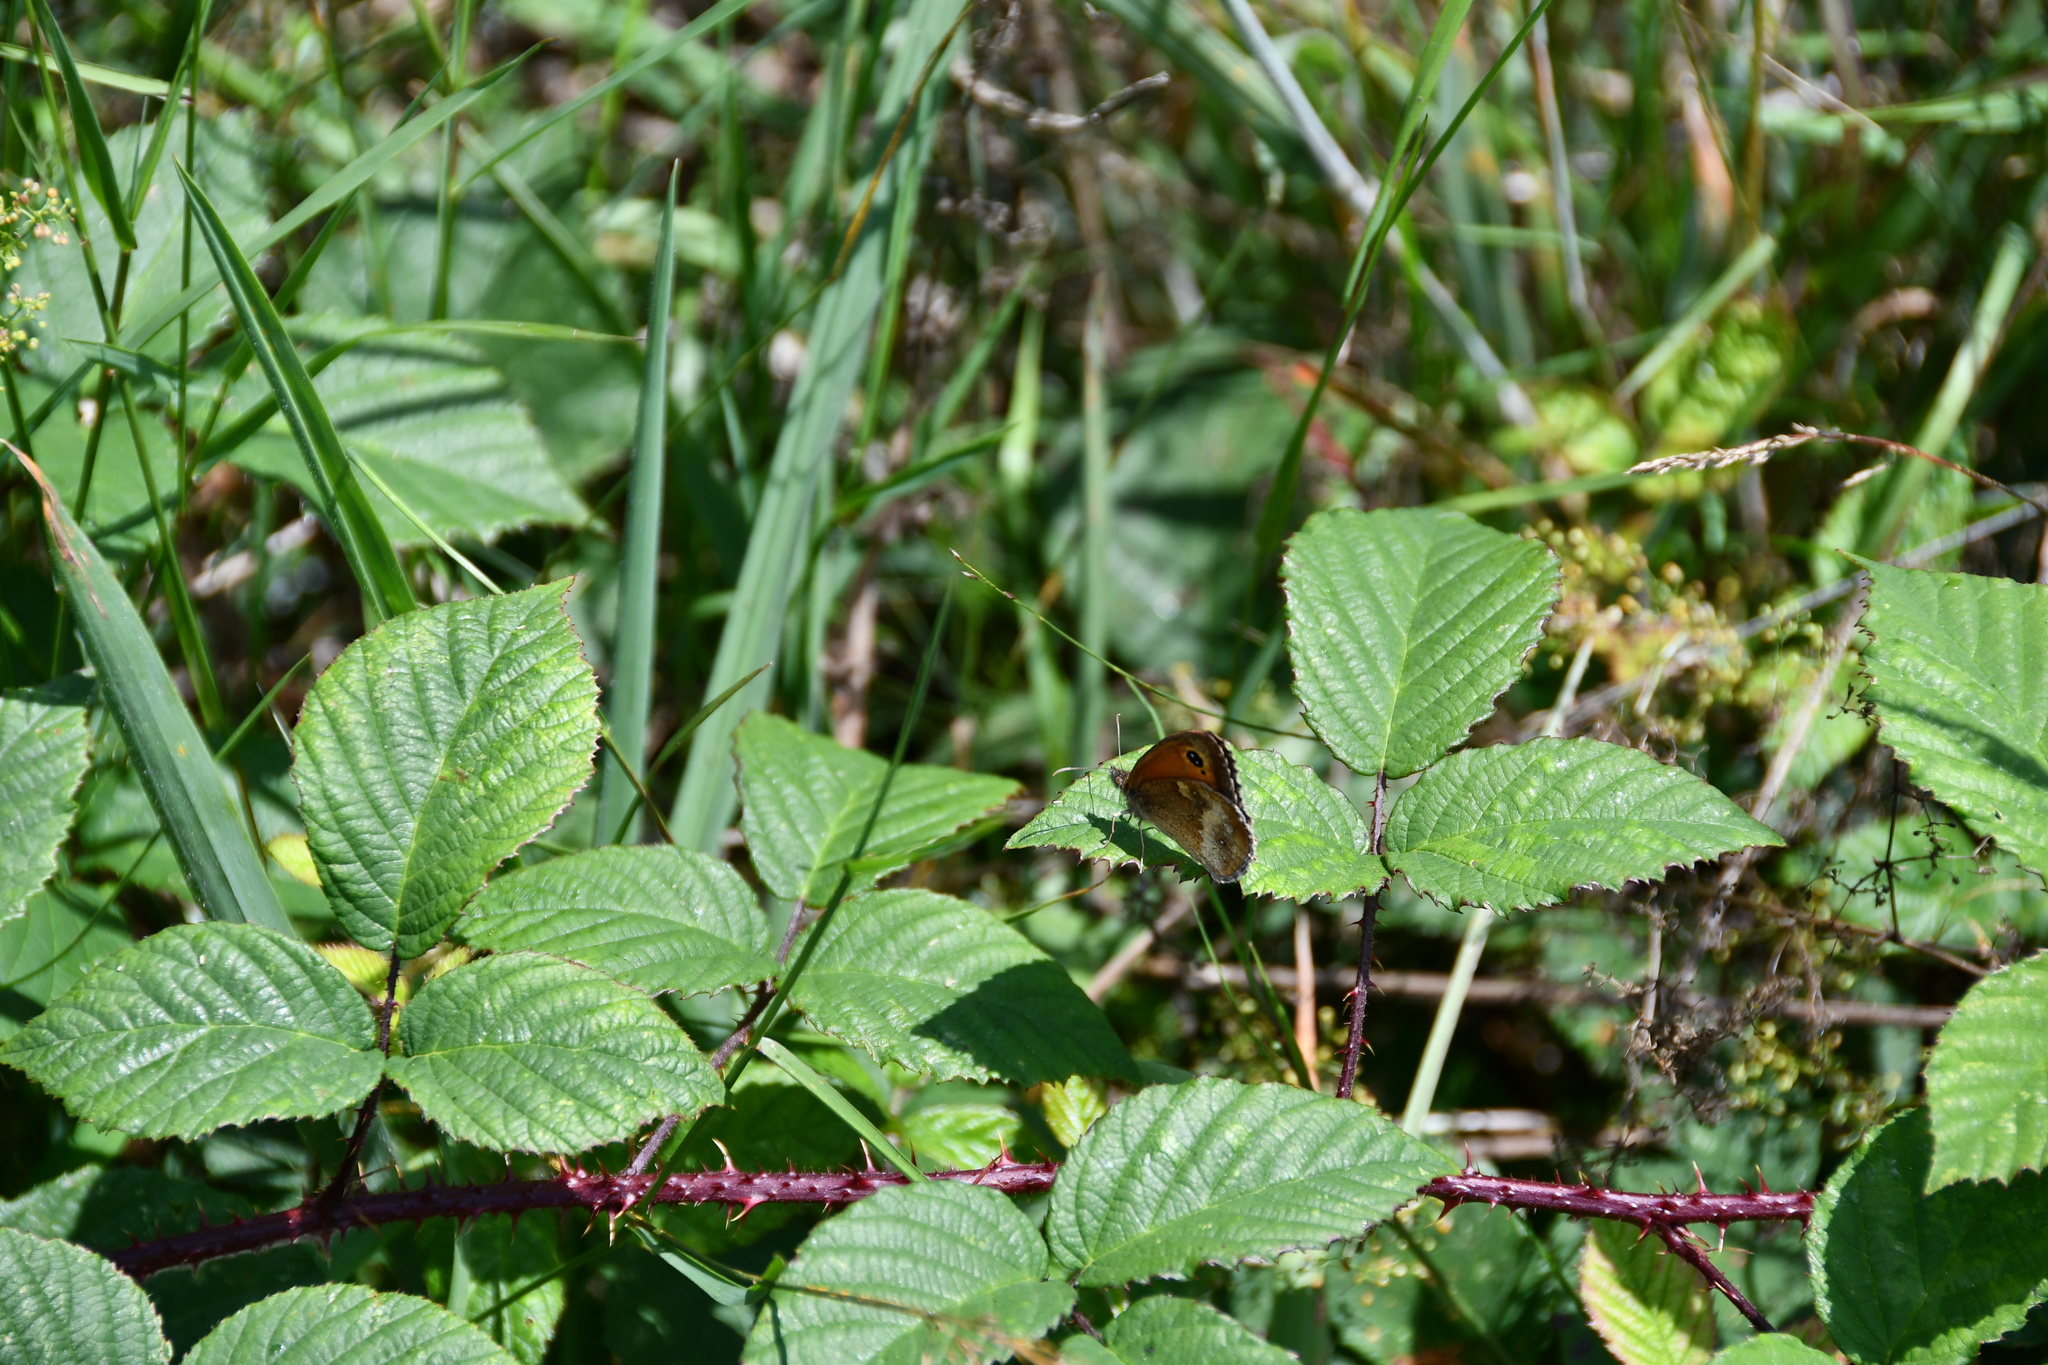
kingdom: Animalia
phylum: Arthropoda
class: Insecta
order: Lepidoptera
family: Nymphalidae
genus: Pyronia
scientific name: Pyronia tithonus
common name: Gatekeeper
